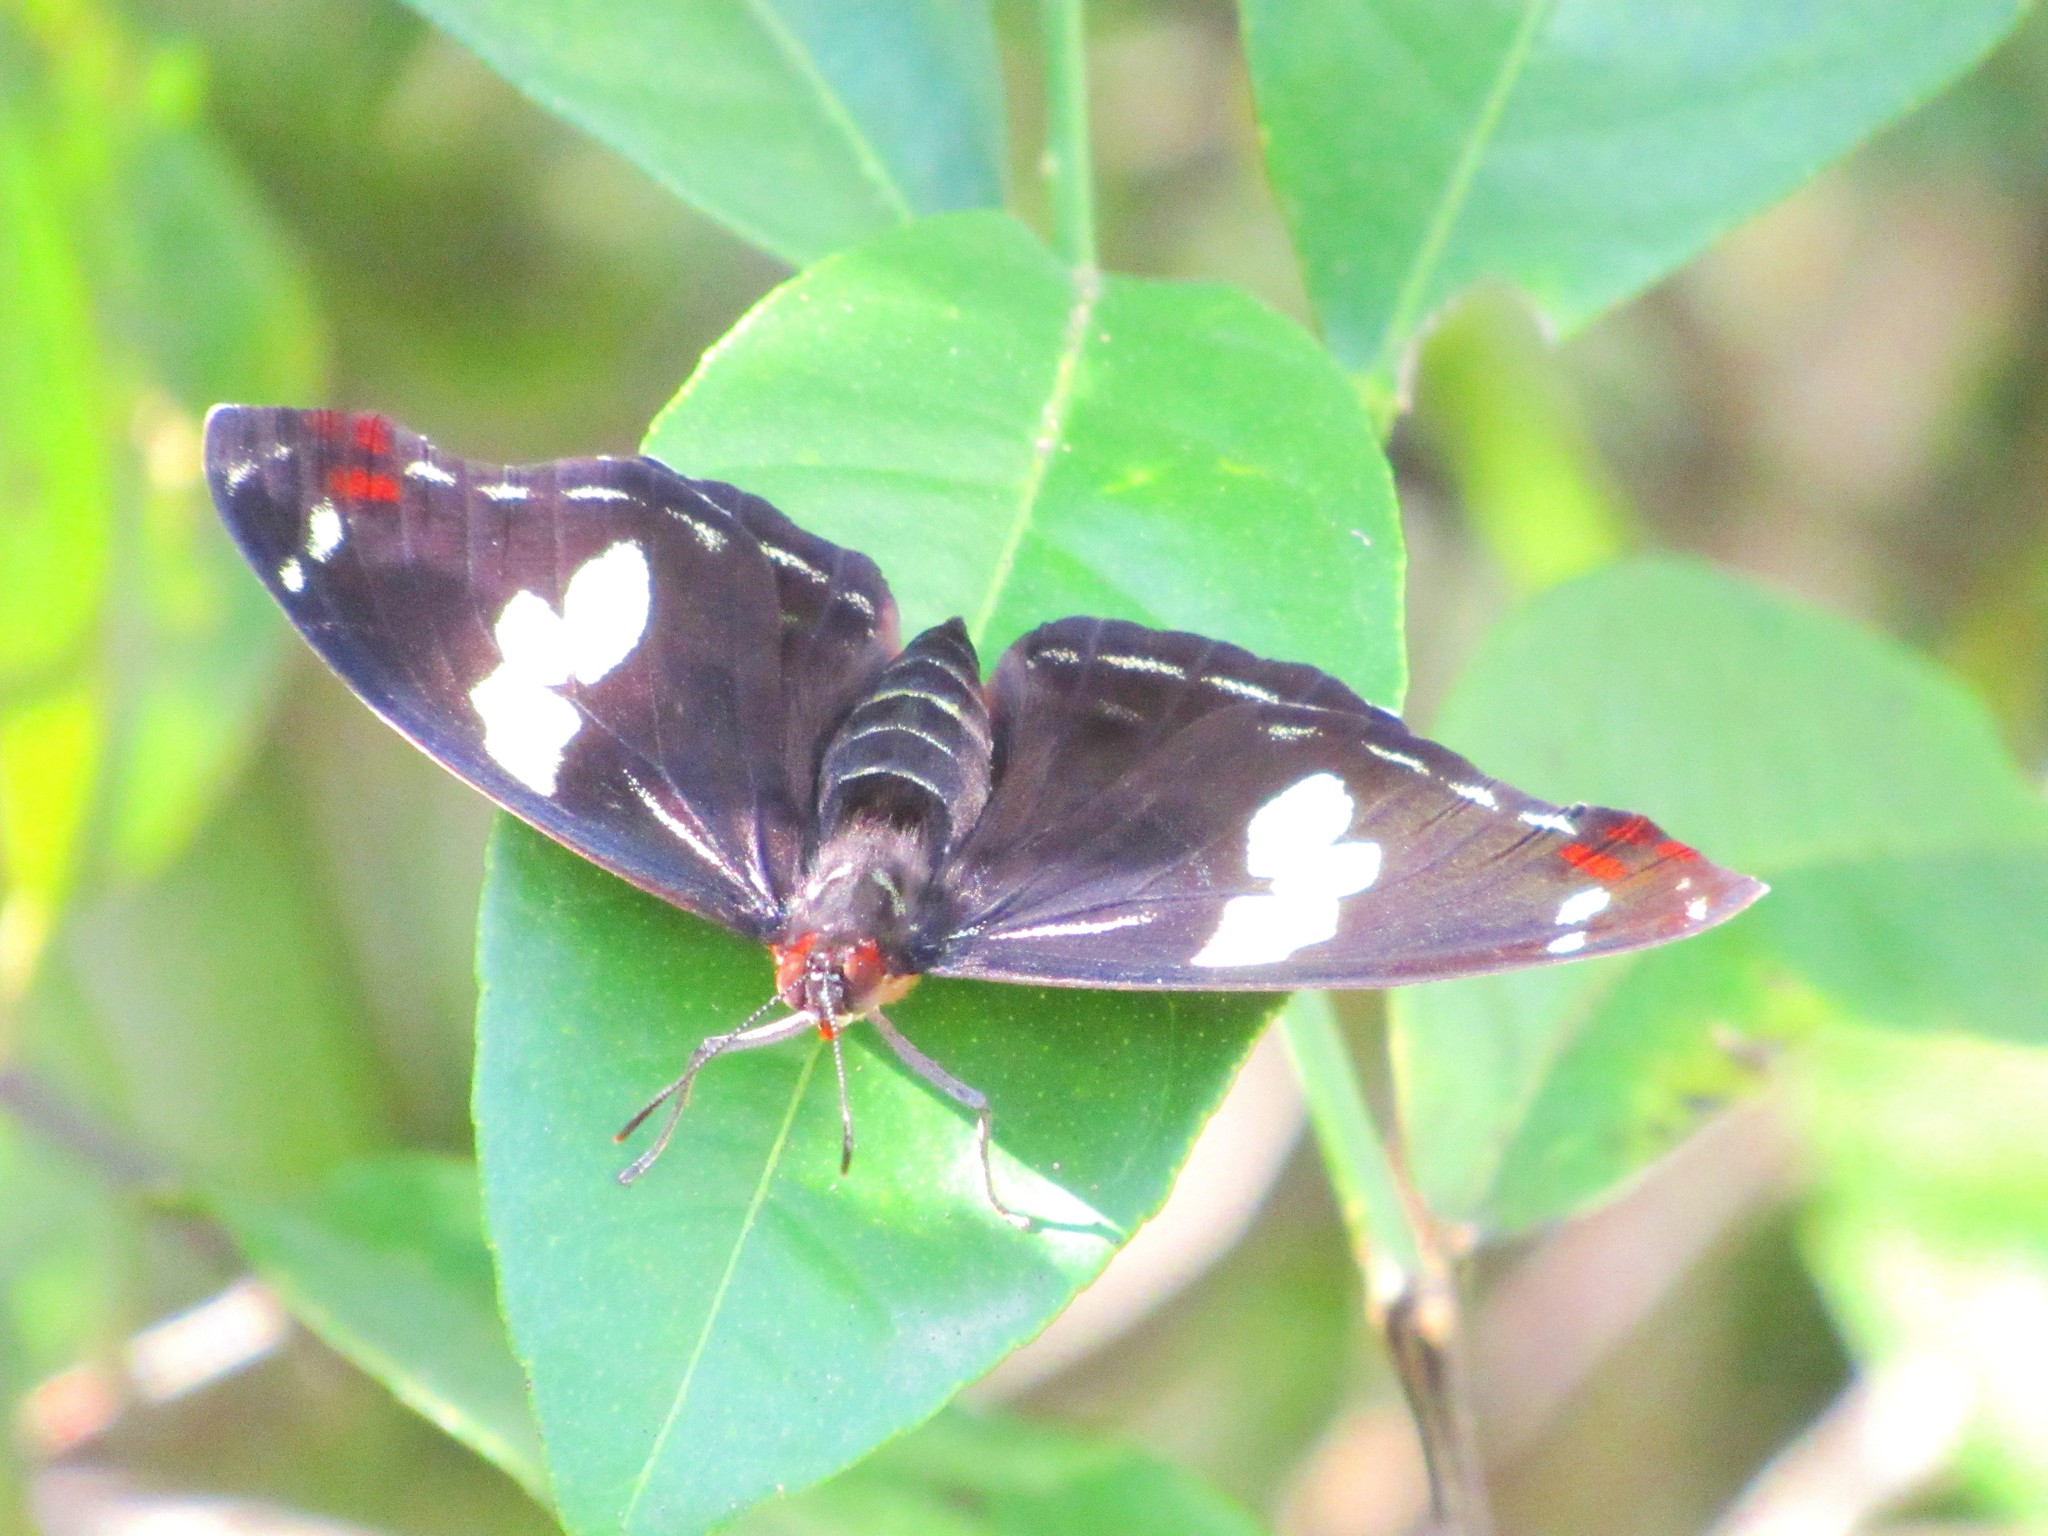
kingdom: Animalia
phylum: Arthropoda
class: Insecta
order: Lepidoptera
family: Nymphalidae
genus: Catonephele
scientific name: Catonephele numilia
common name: Blue-frosted banner
